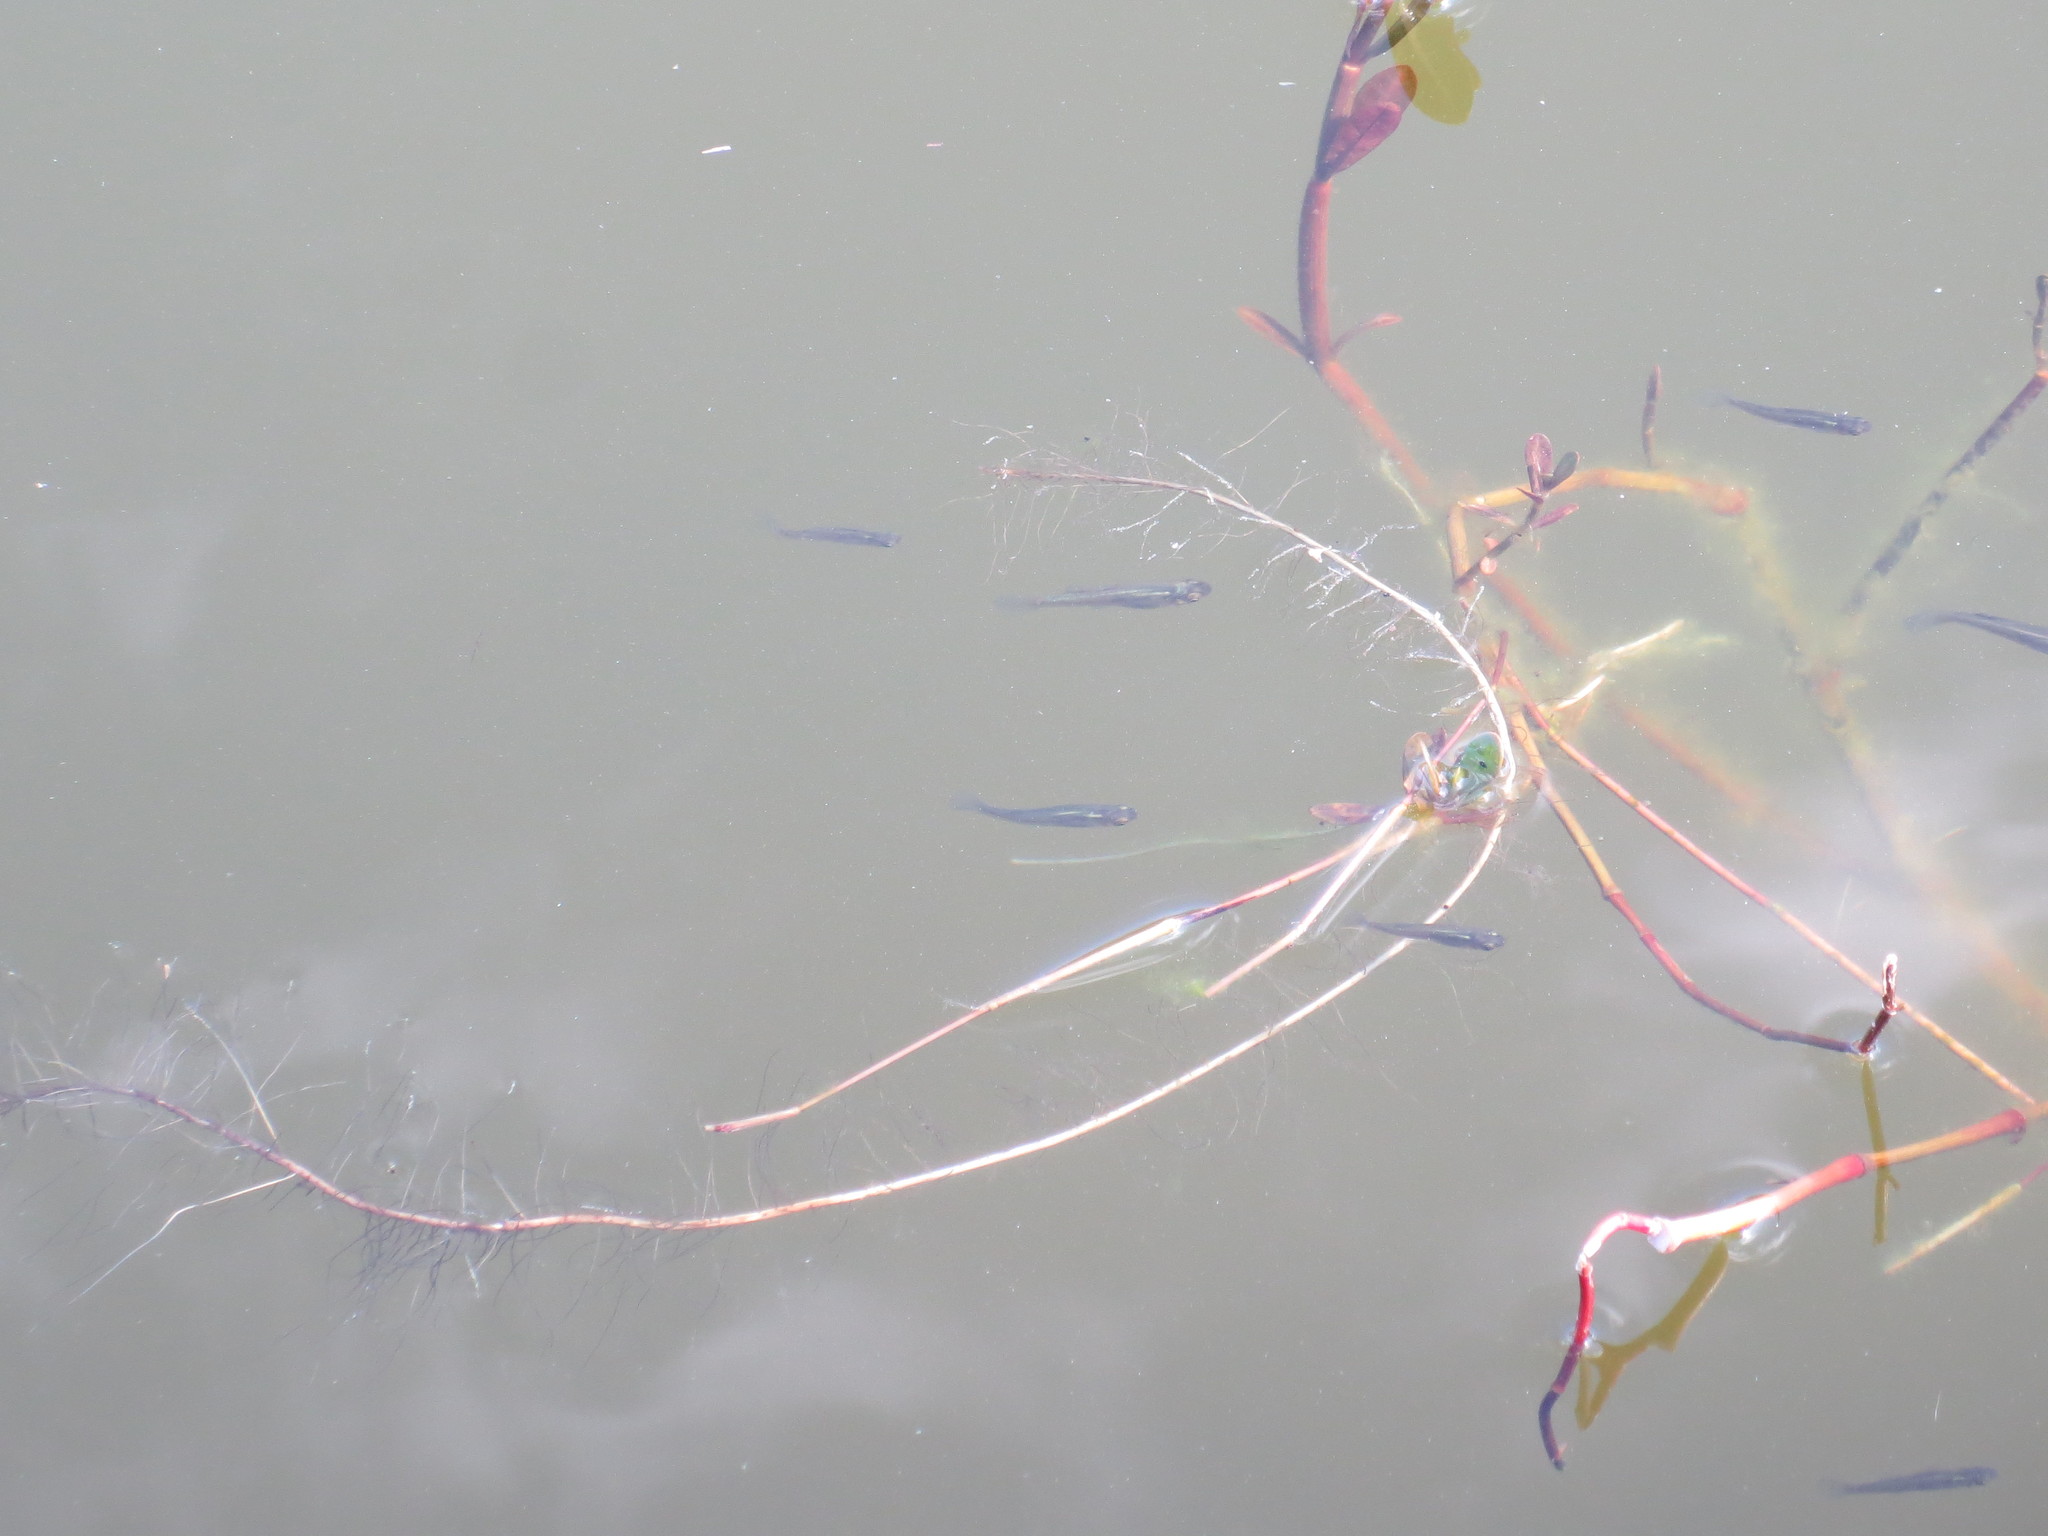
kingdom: Animalia
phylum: Chordata
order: Cyprinodontiformes
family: Poeciliidae
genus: Gambusia
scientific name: Gambusia holbrooki
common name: Eastern mosquitofish
